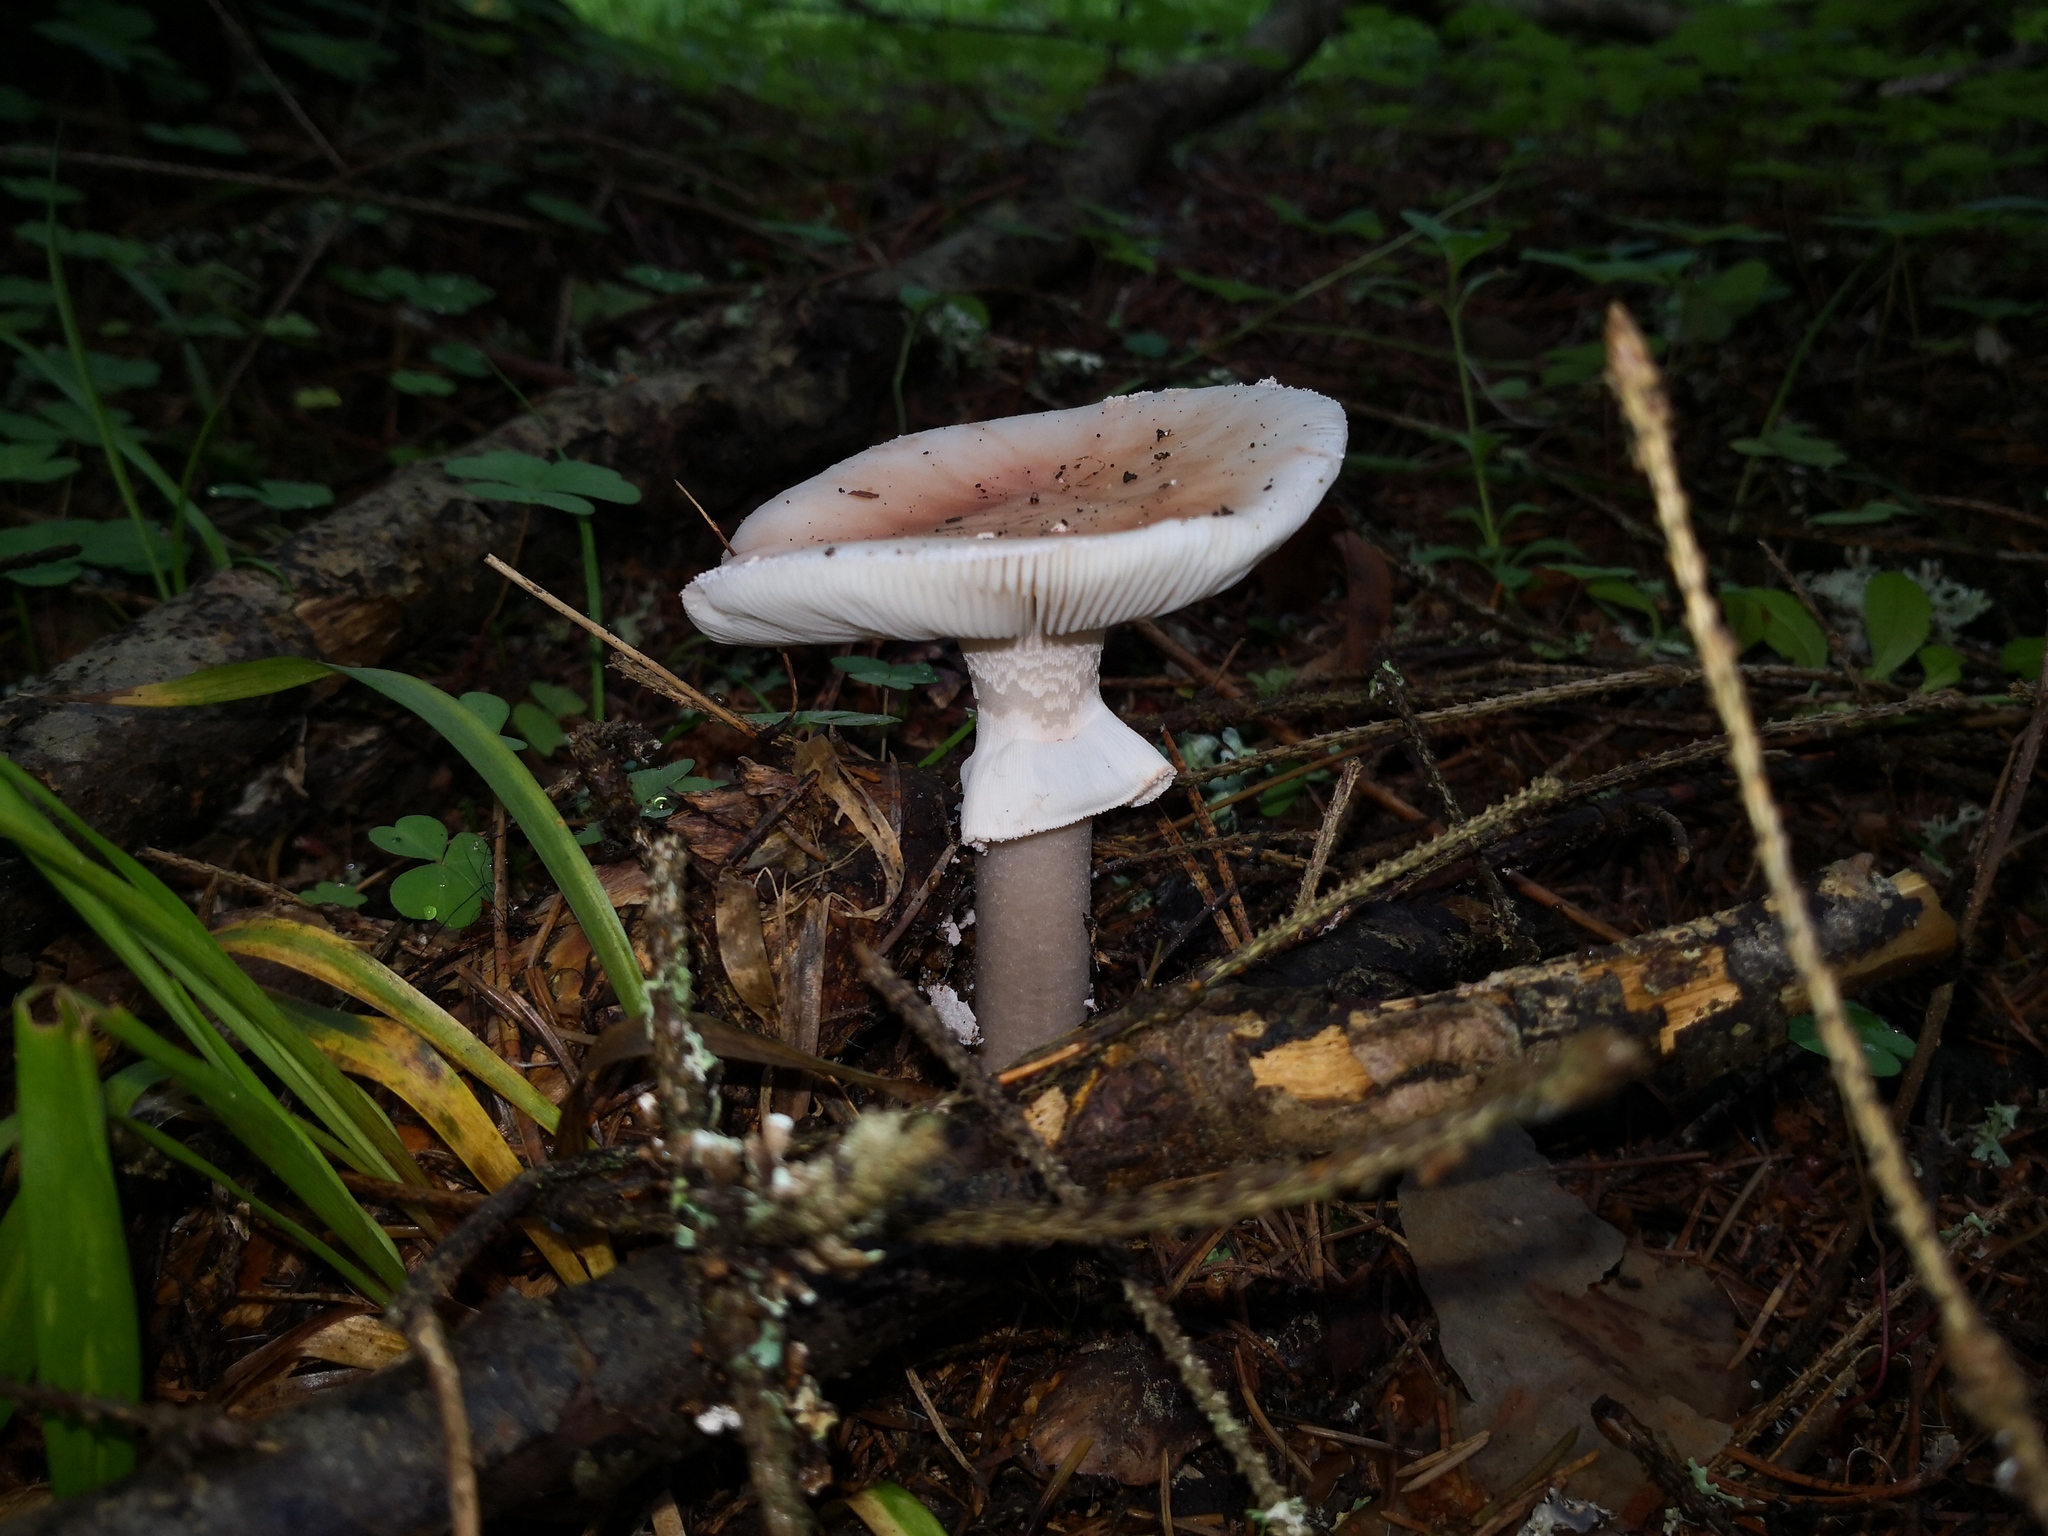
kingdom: Fungi
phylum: Basidiomycota
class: Agaricomycetes
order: Agaricales
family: Amanitaceae
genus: Amanita
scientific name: Amanita rubescens
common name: Blusher
